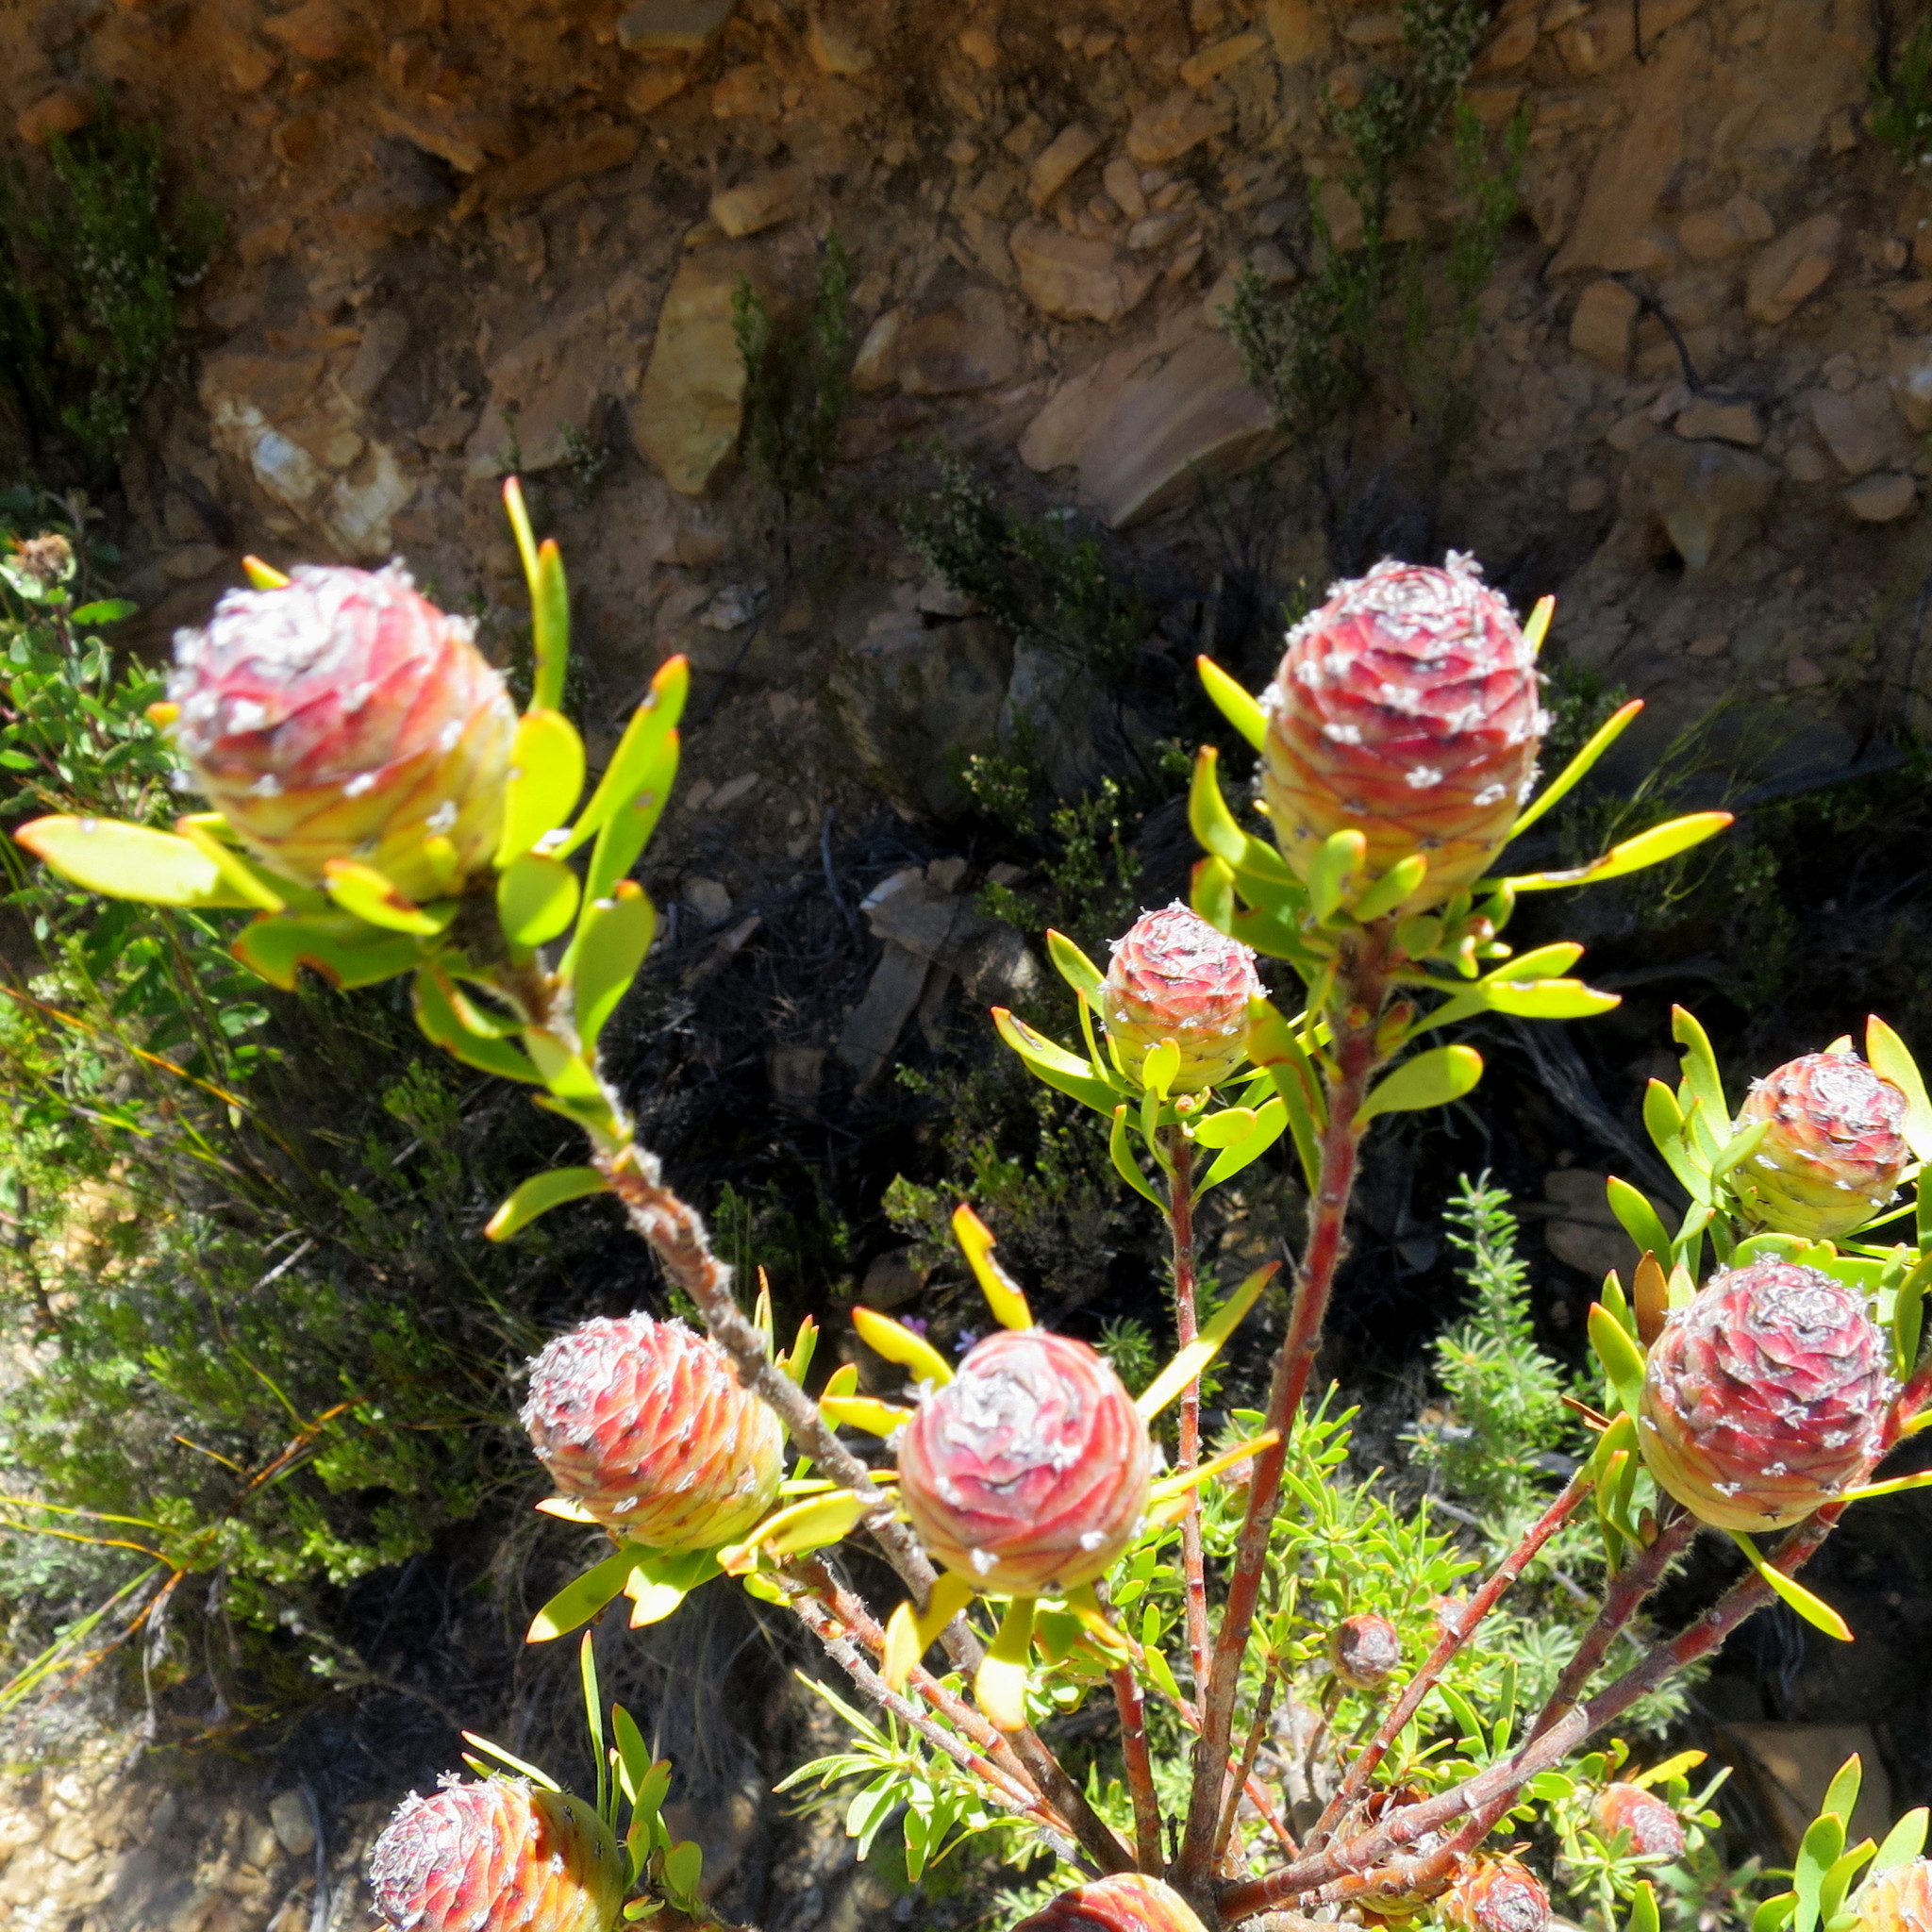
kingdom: Plantae
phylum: Tracheophyta
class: Magnoliopsida
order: Proteales
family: Proteaceae
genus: Leucadendron
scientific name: Leucadendron rourkei
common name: Uniondale conebush
